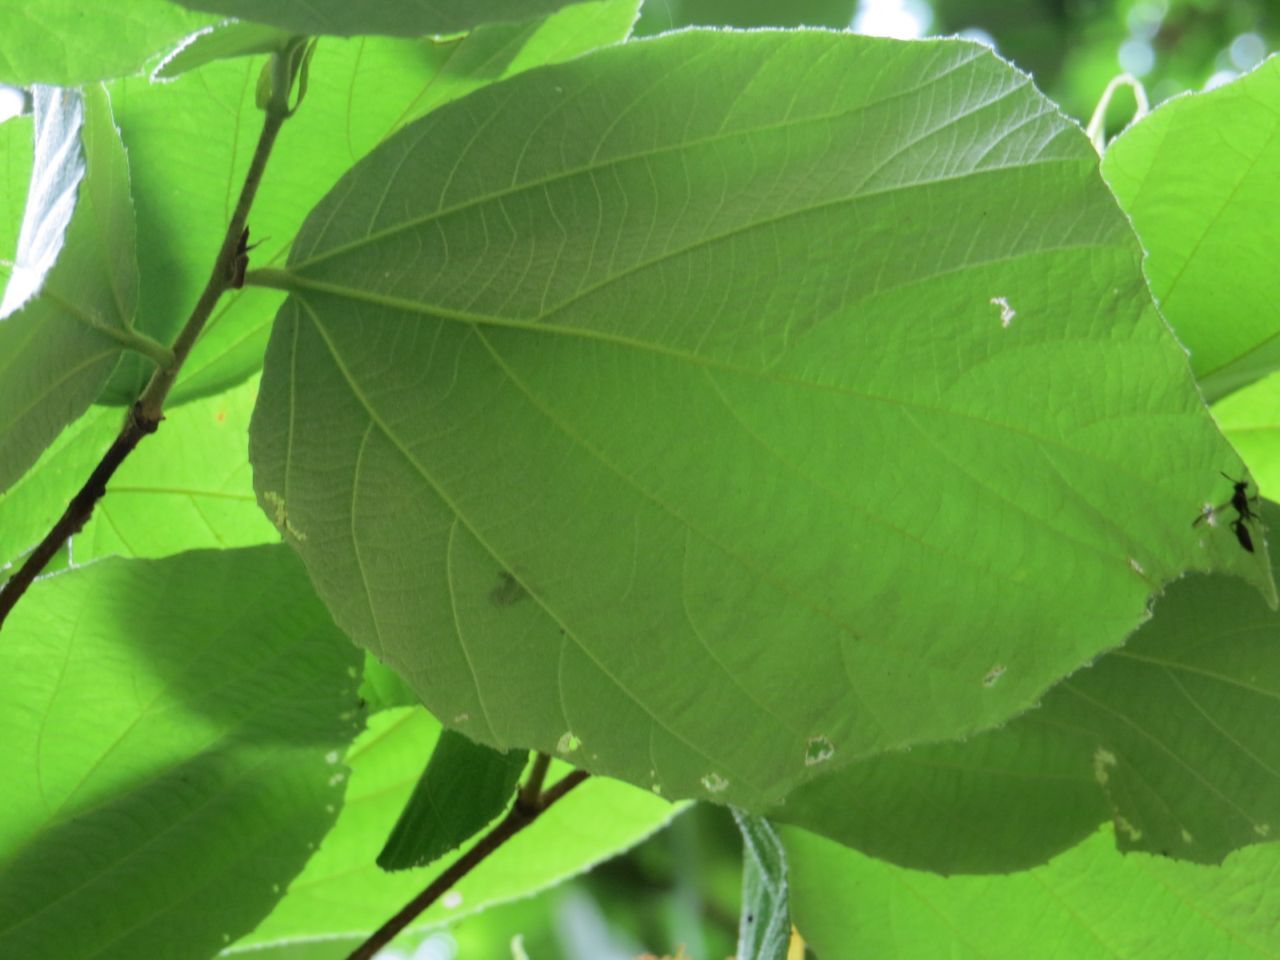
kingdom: Plantae
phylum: Tracheophyta
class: Magnoliopsida
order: Malvales
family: Malvaceae
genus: Luehea
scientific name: Luehea speciosa
